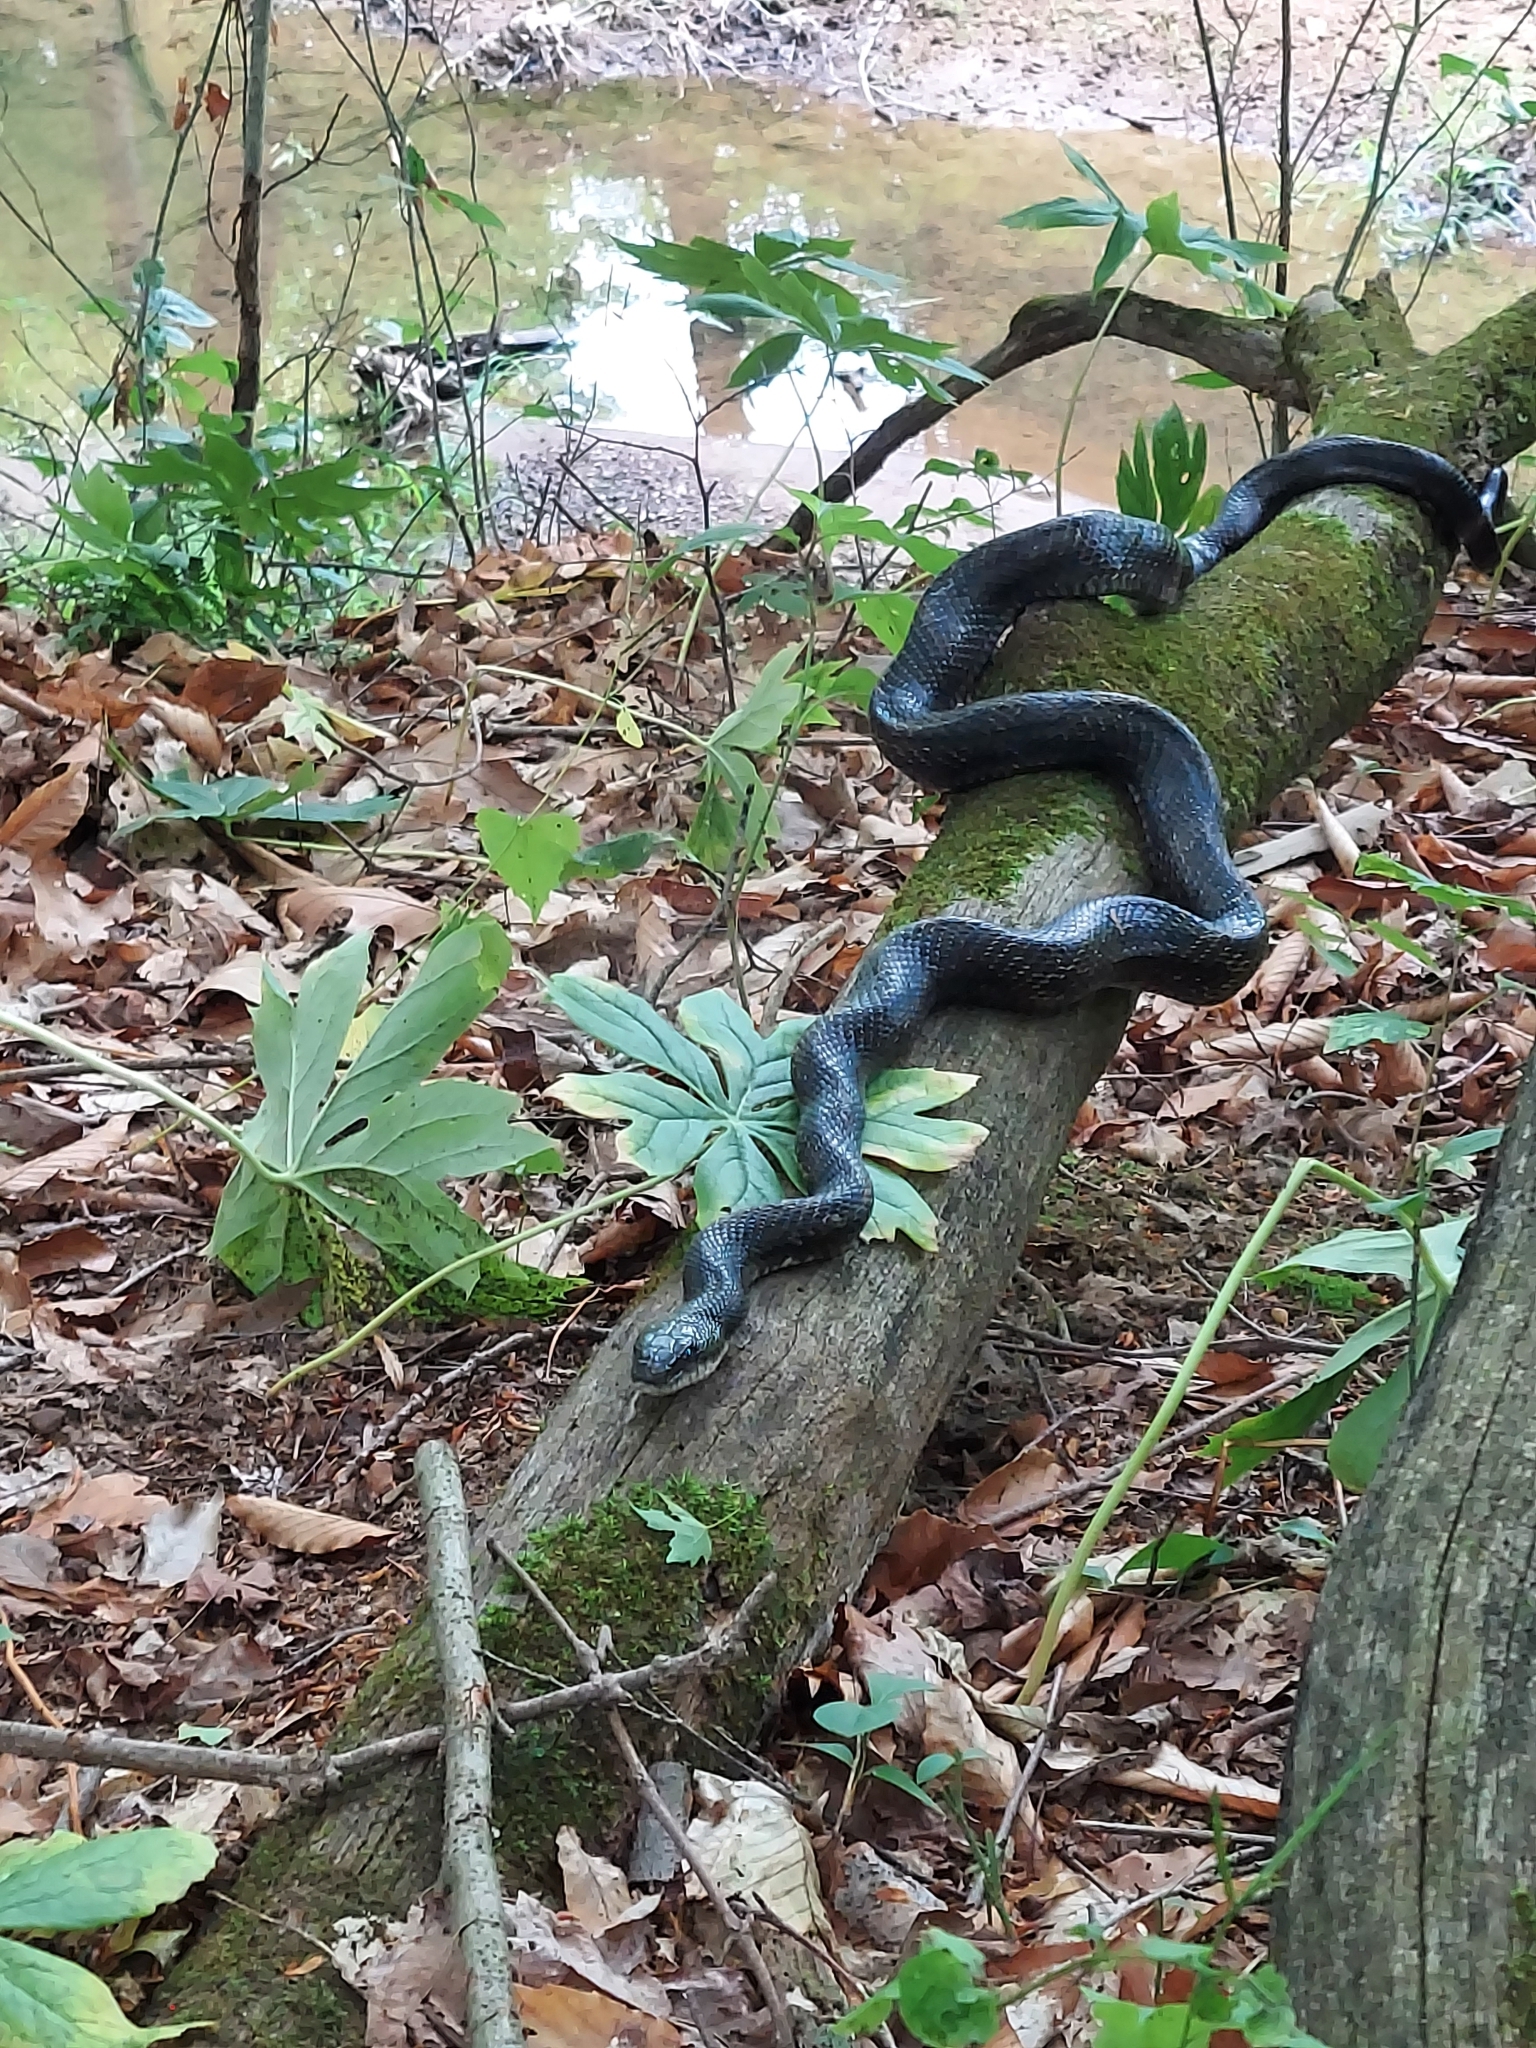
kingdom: Animalia
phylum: Chordata
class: Squamata
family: Colubridae
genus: Pantherophis
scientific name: Pantherophis spiloides
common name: Gray rat snake
